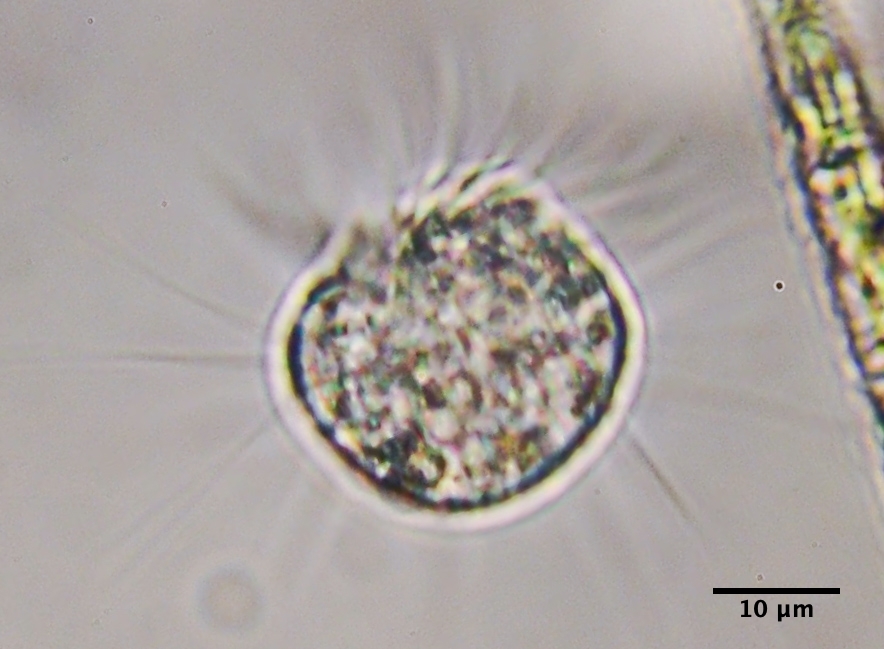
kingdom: Chromista
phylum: Ciliophora
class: Oligotrichea
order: Halteriida
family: Halteriidae
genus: Halteria
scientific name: Halteria
